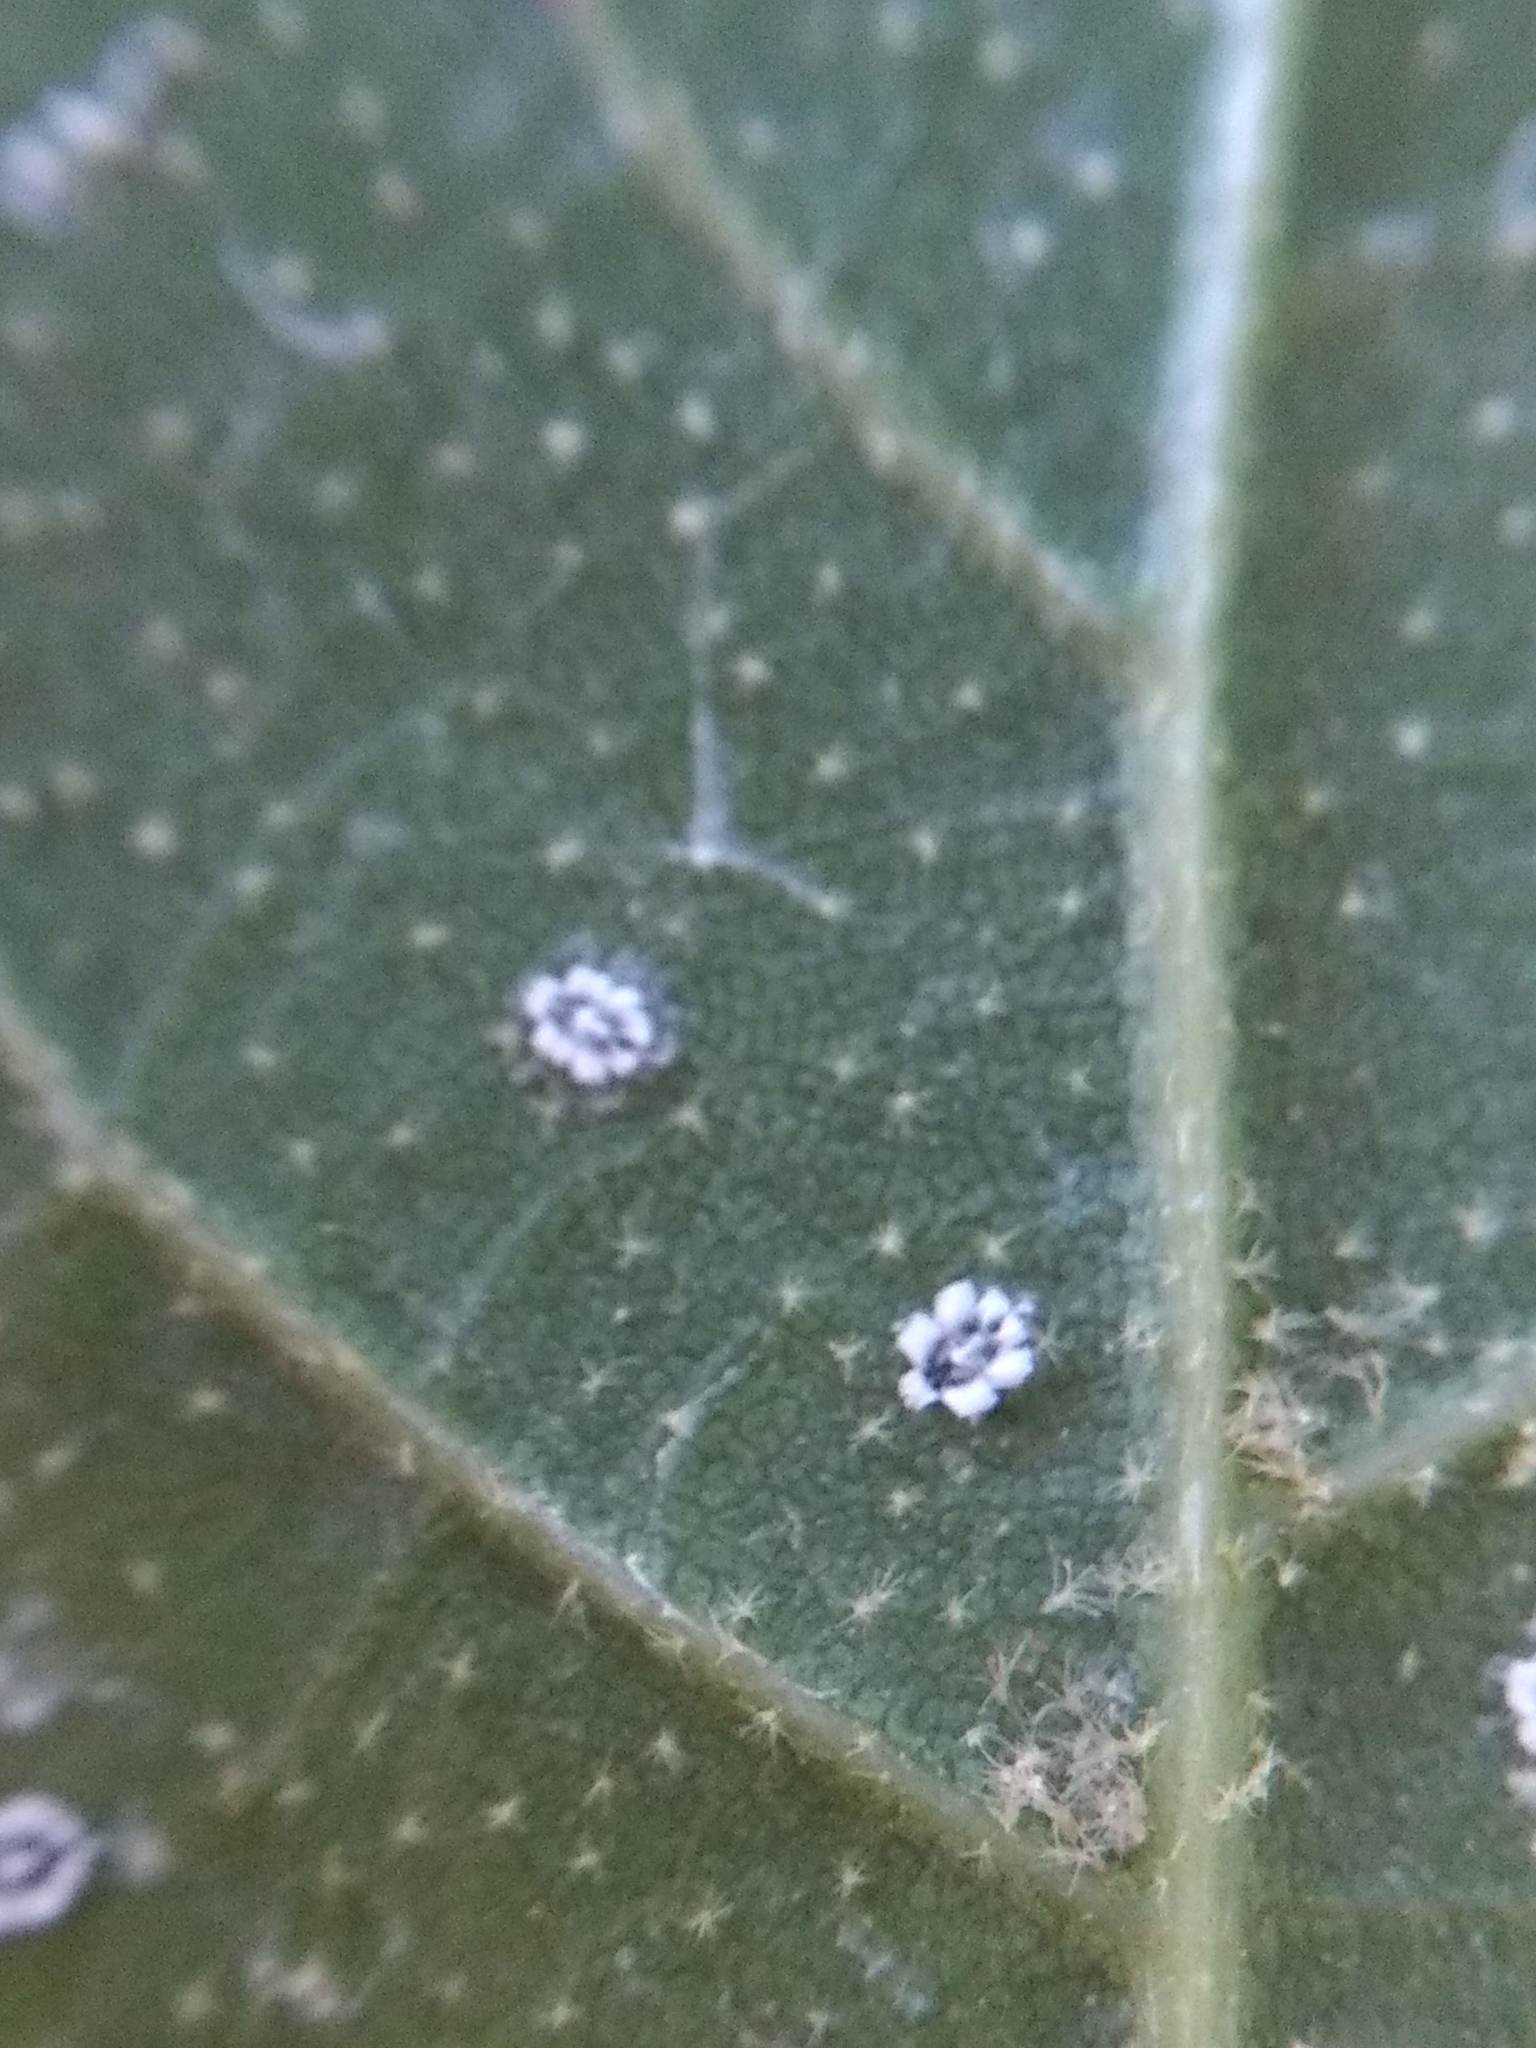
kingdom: Animalia
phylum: Arthropoda
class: Insecta
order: Hemiptera
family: Aleyrodidae
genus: Aleuroplatus
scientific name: Aleuroplatus coronata
